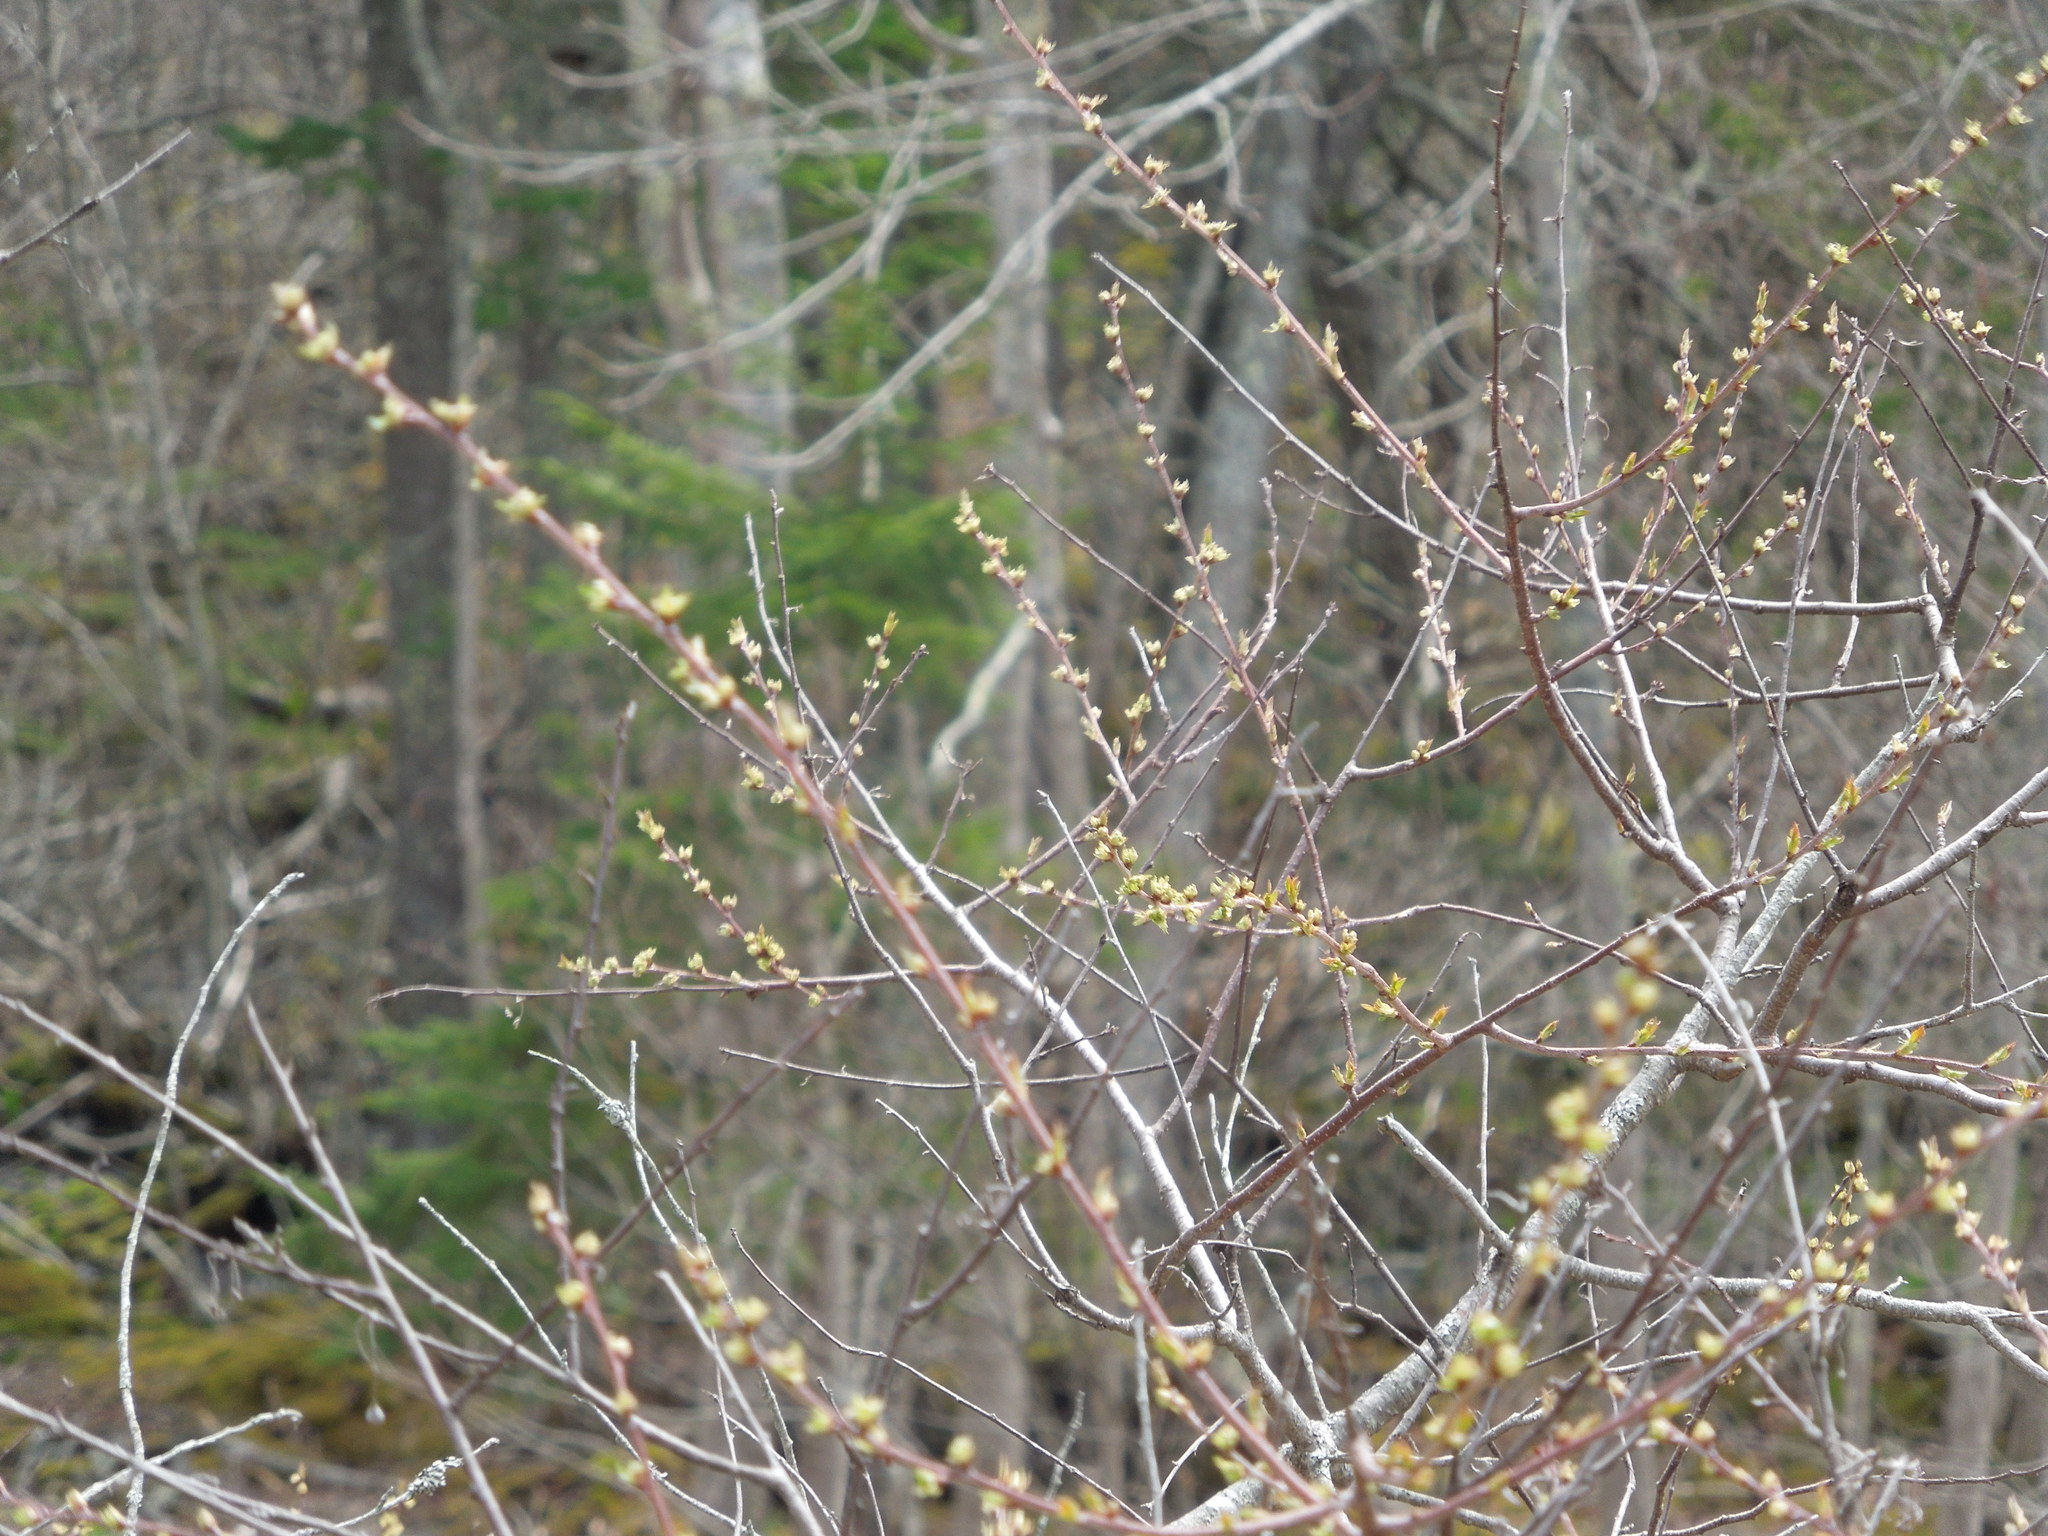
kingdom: Plantae
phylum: Tracheophyta
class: Magnoliopsida
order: Rosales
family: Rosaceae
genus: Prunus
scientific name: Prunus pensylvanica
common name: Pin cherry
